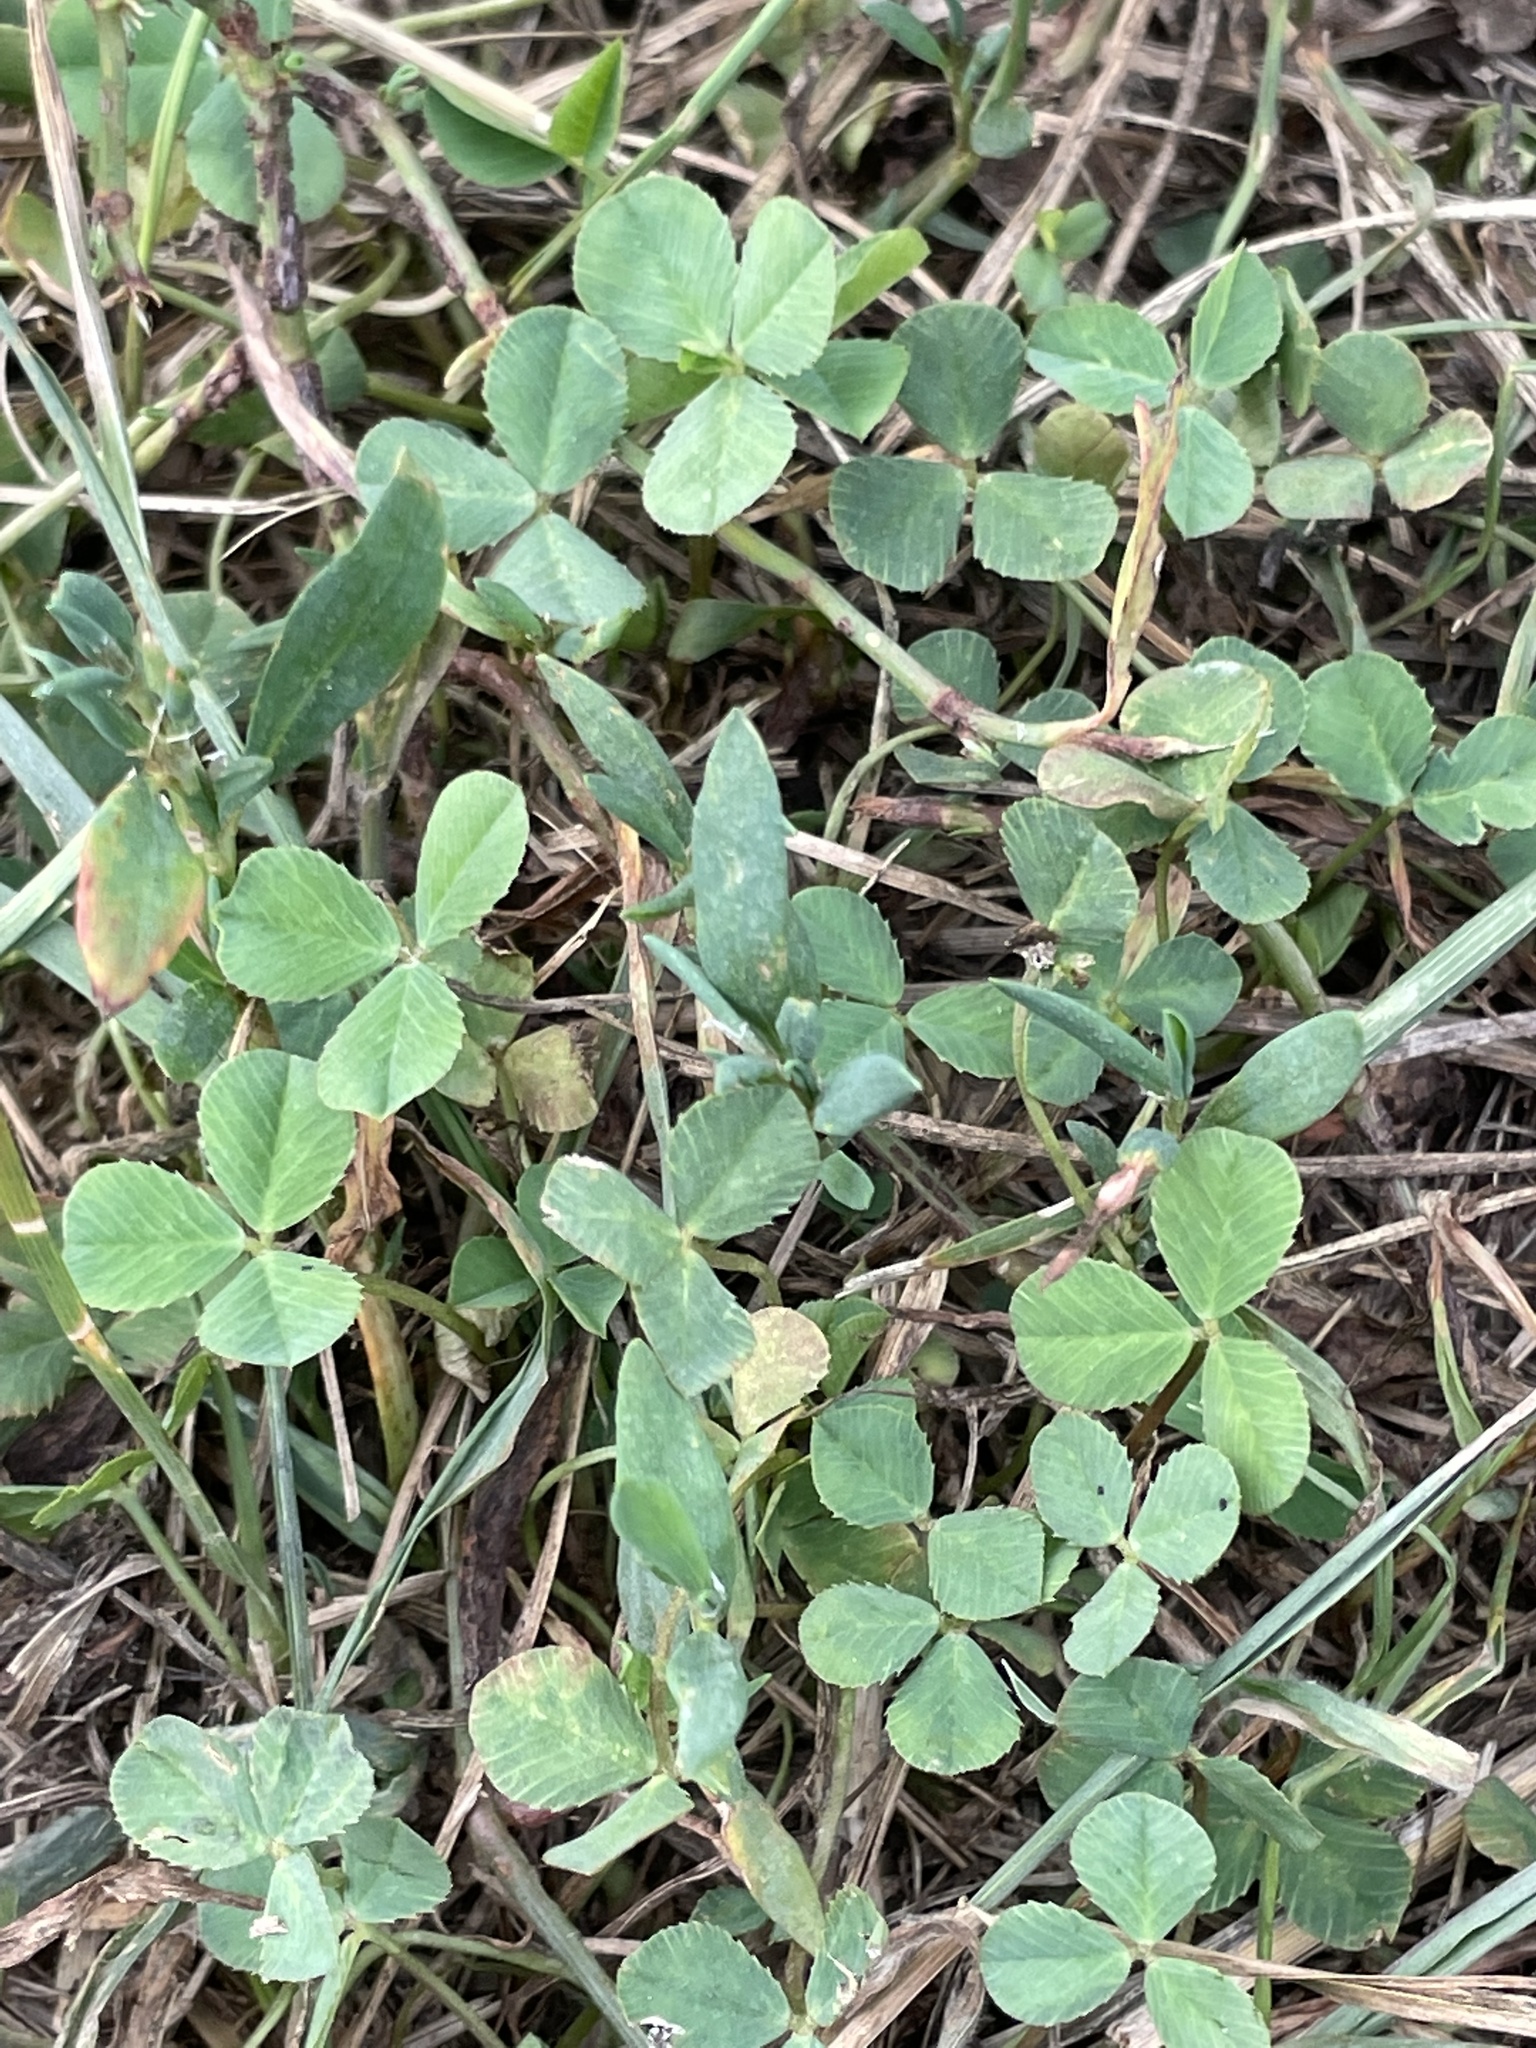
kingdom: Plantae
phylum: Tracheophyta
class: Magnoliopsida
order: Fabales
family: Fabaceae
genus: Trifolium
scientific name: Trifolium repens
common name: White clover
